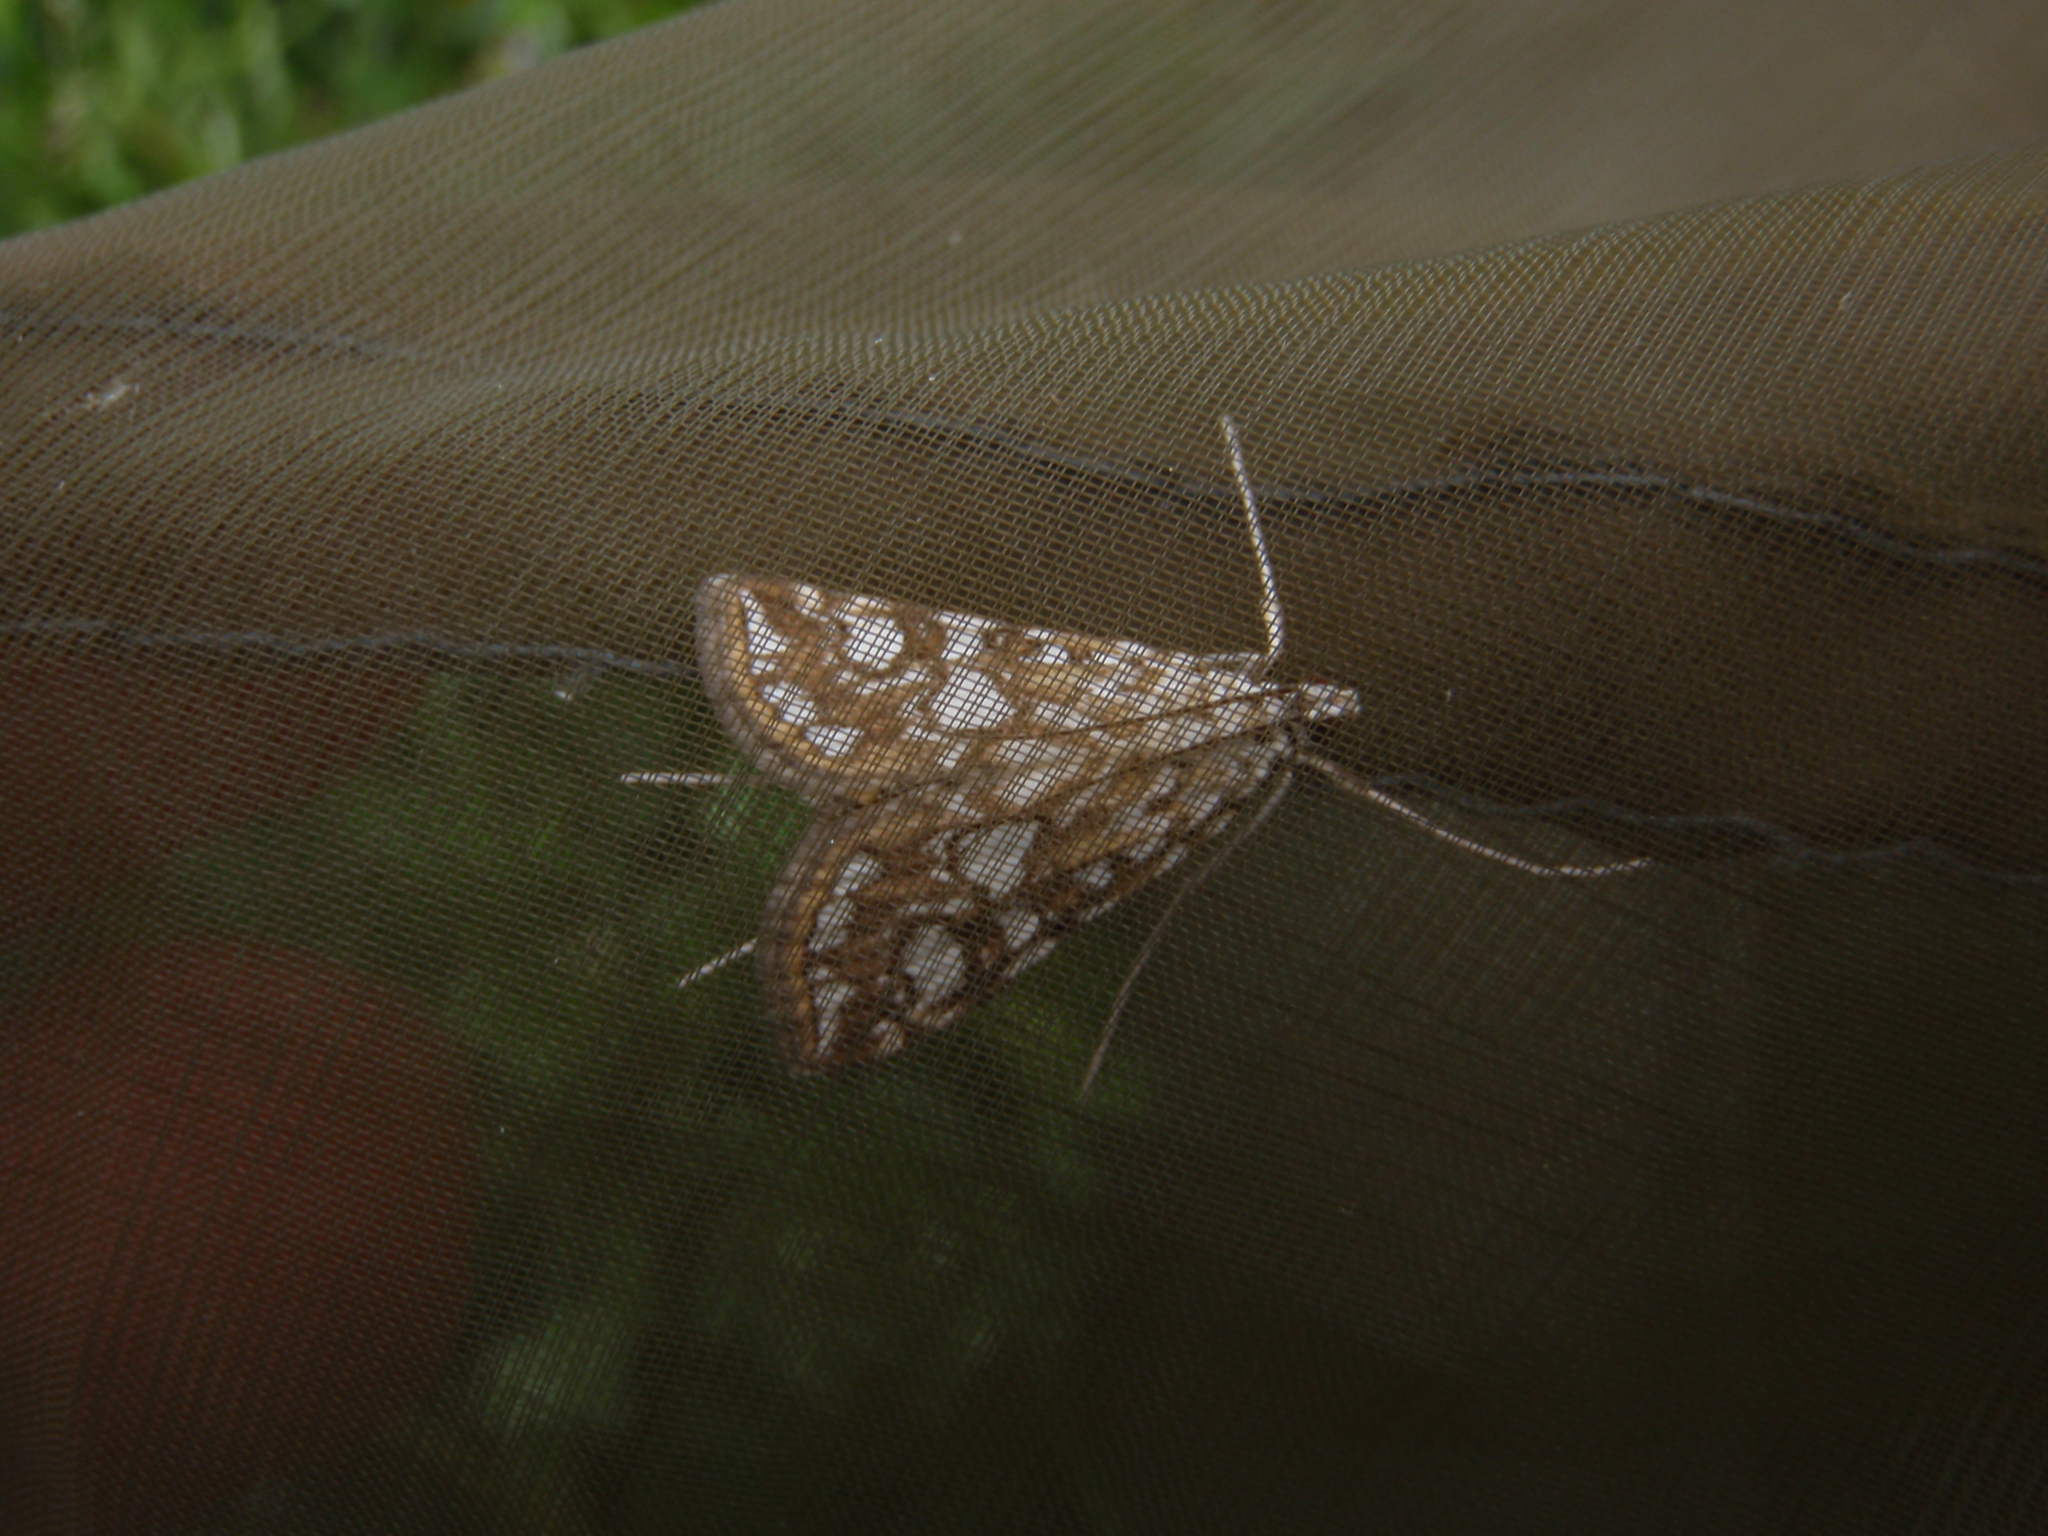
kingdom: Animalia
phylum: Arthropoda
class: Insecta
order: Lepidoptera
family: Crambidae
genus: Elophila
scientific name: Elophila nymphaeata
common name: Brown china-mark
